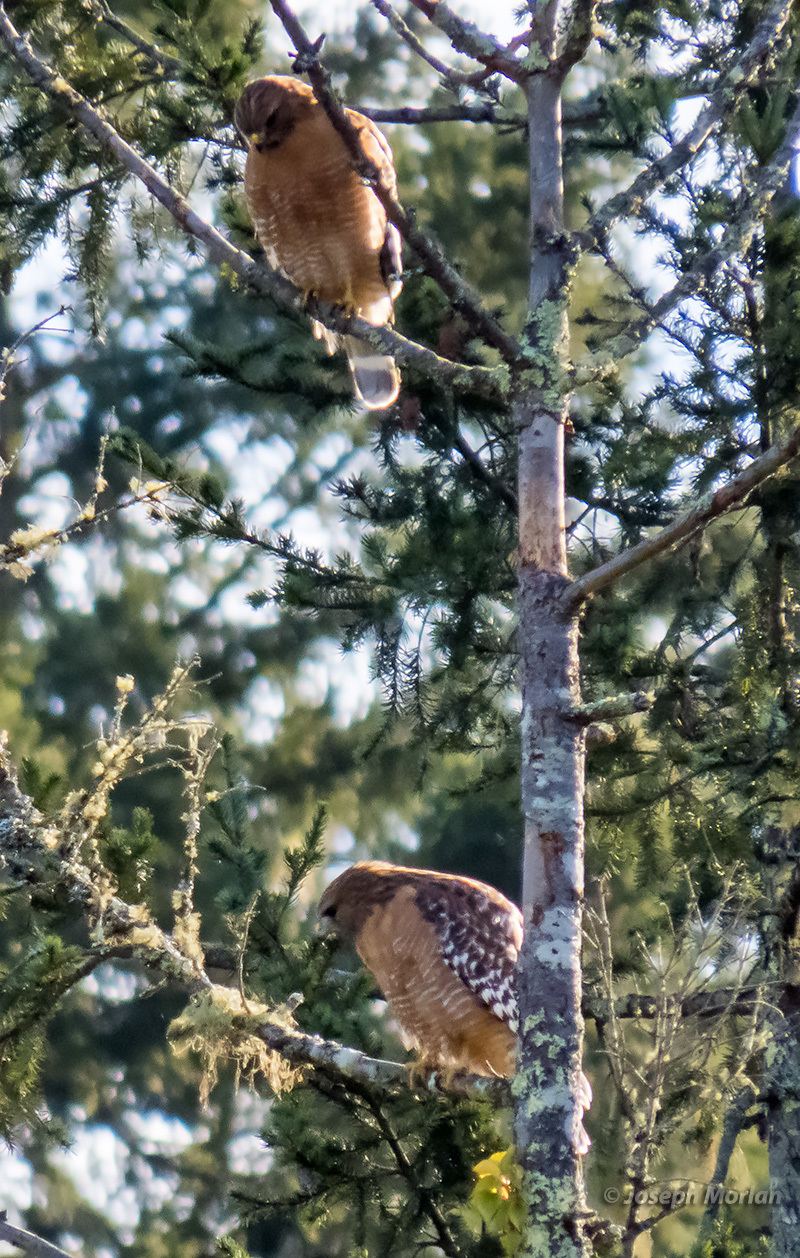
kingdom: Animalia
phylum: Chordata
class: Aves
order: Accipitriformes
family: Accipitridae
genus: Buteo
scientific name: Buteo lineatus
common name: Red-shouldered hawk
